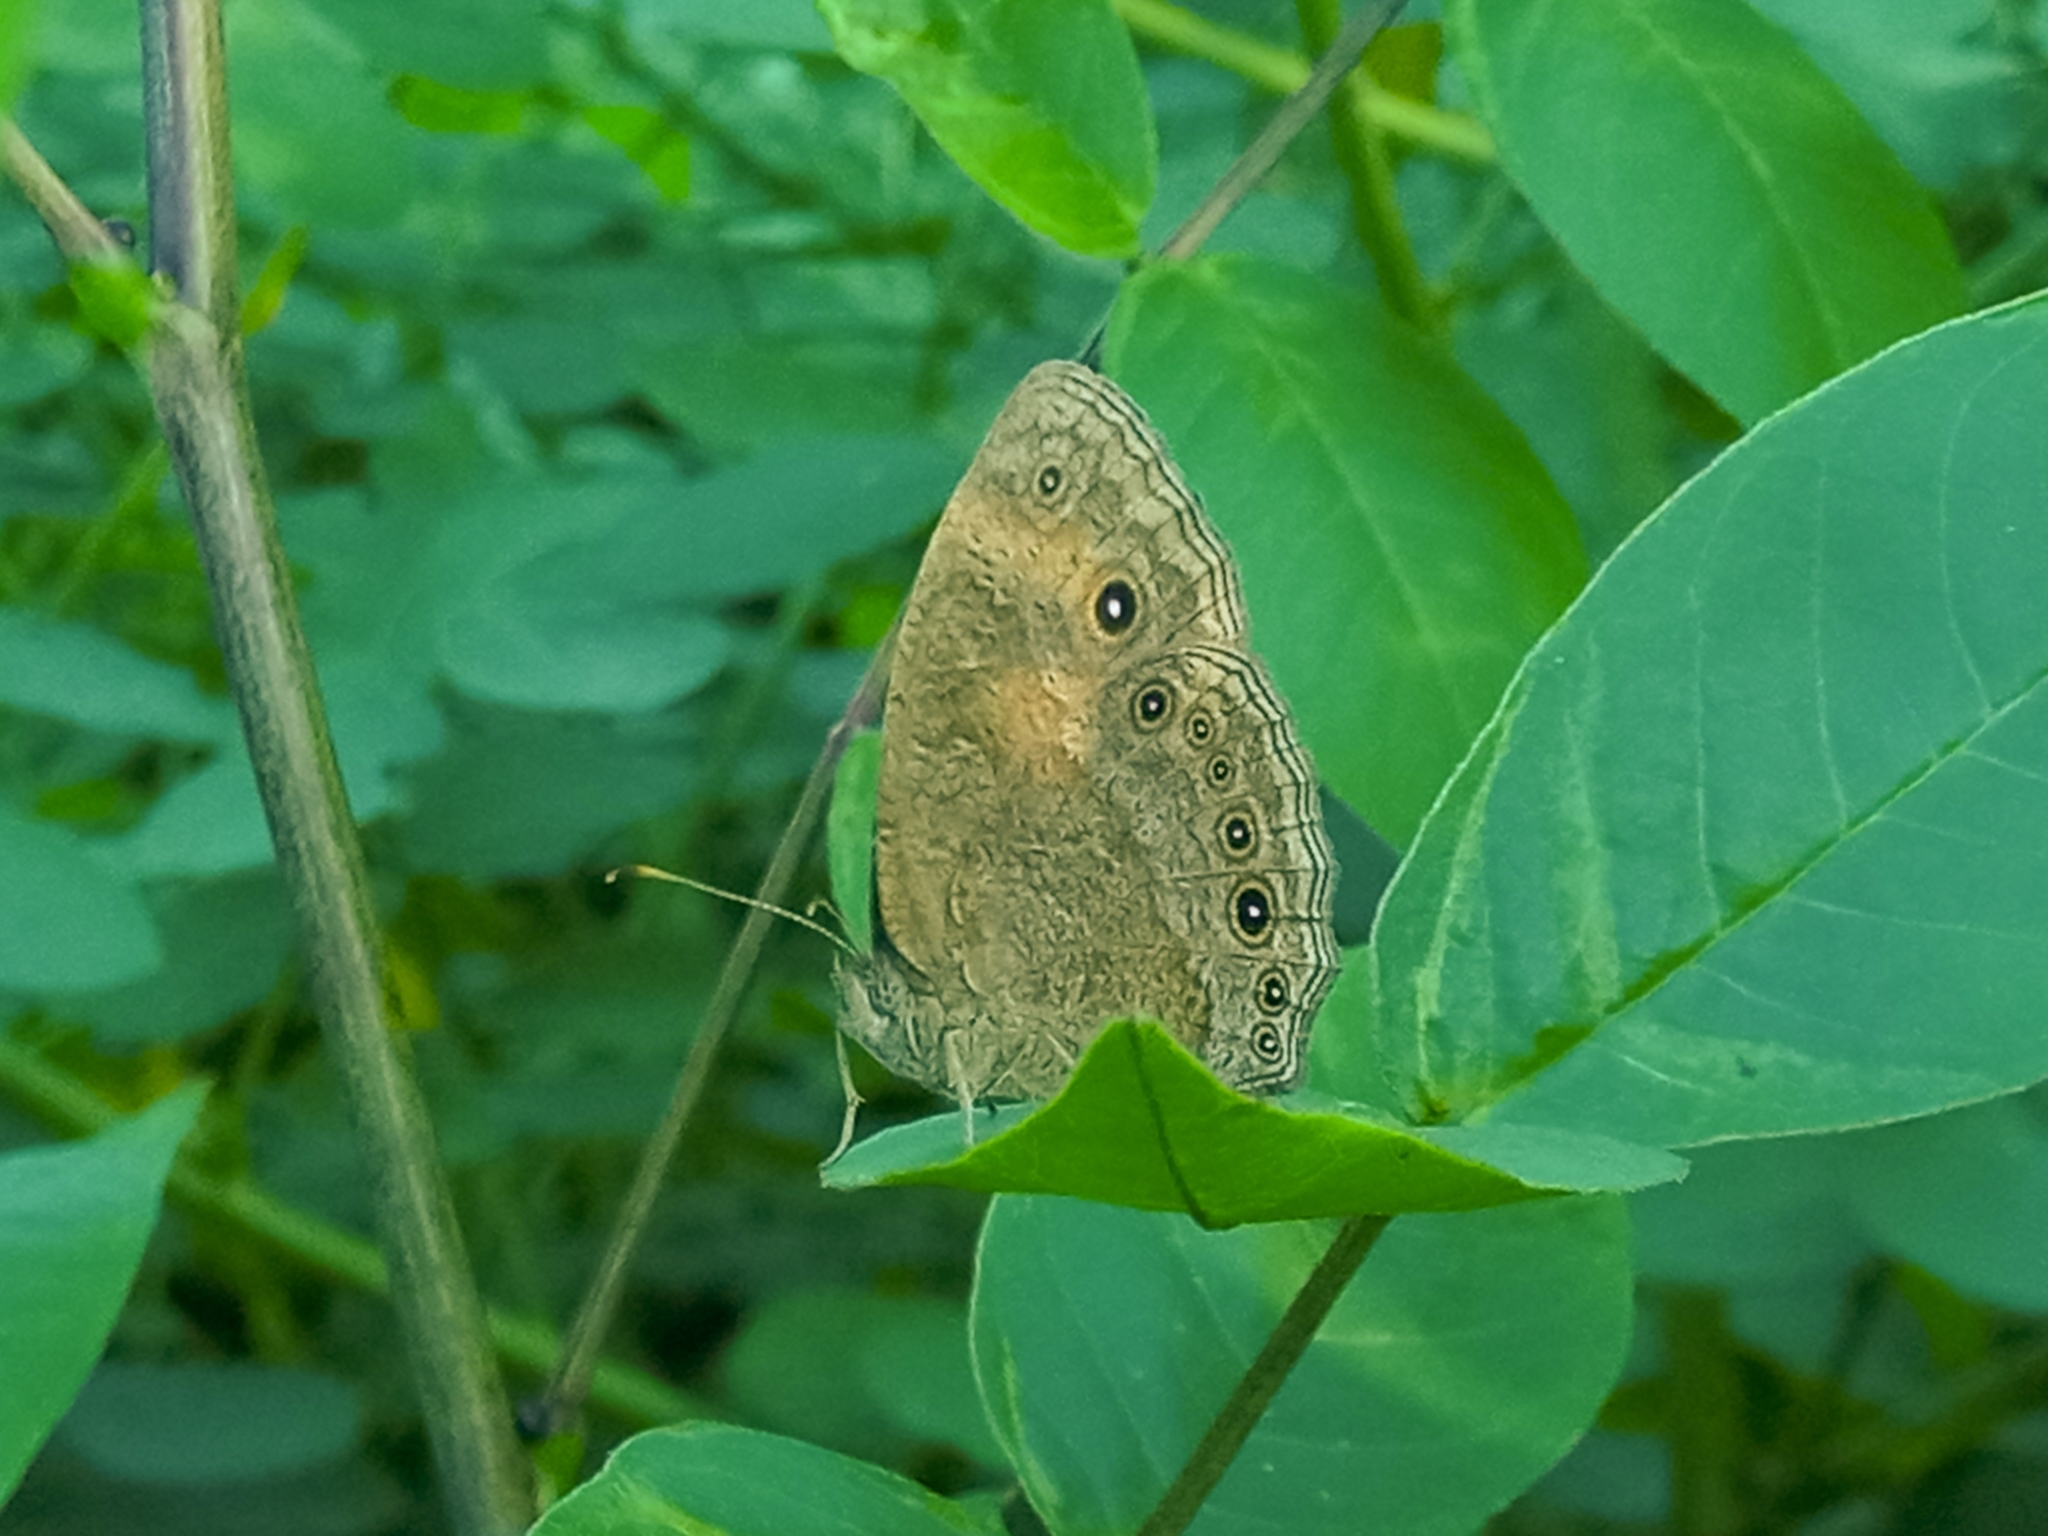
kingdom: Animalia
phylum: Arthropoda
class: Insecta
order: Lepidoptera
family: Nymphalidae
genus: Mycalesis
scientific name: Mycalesis vulgaris
